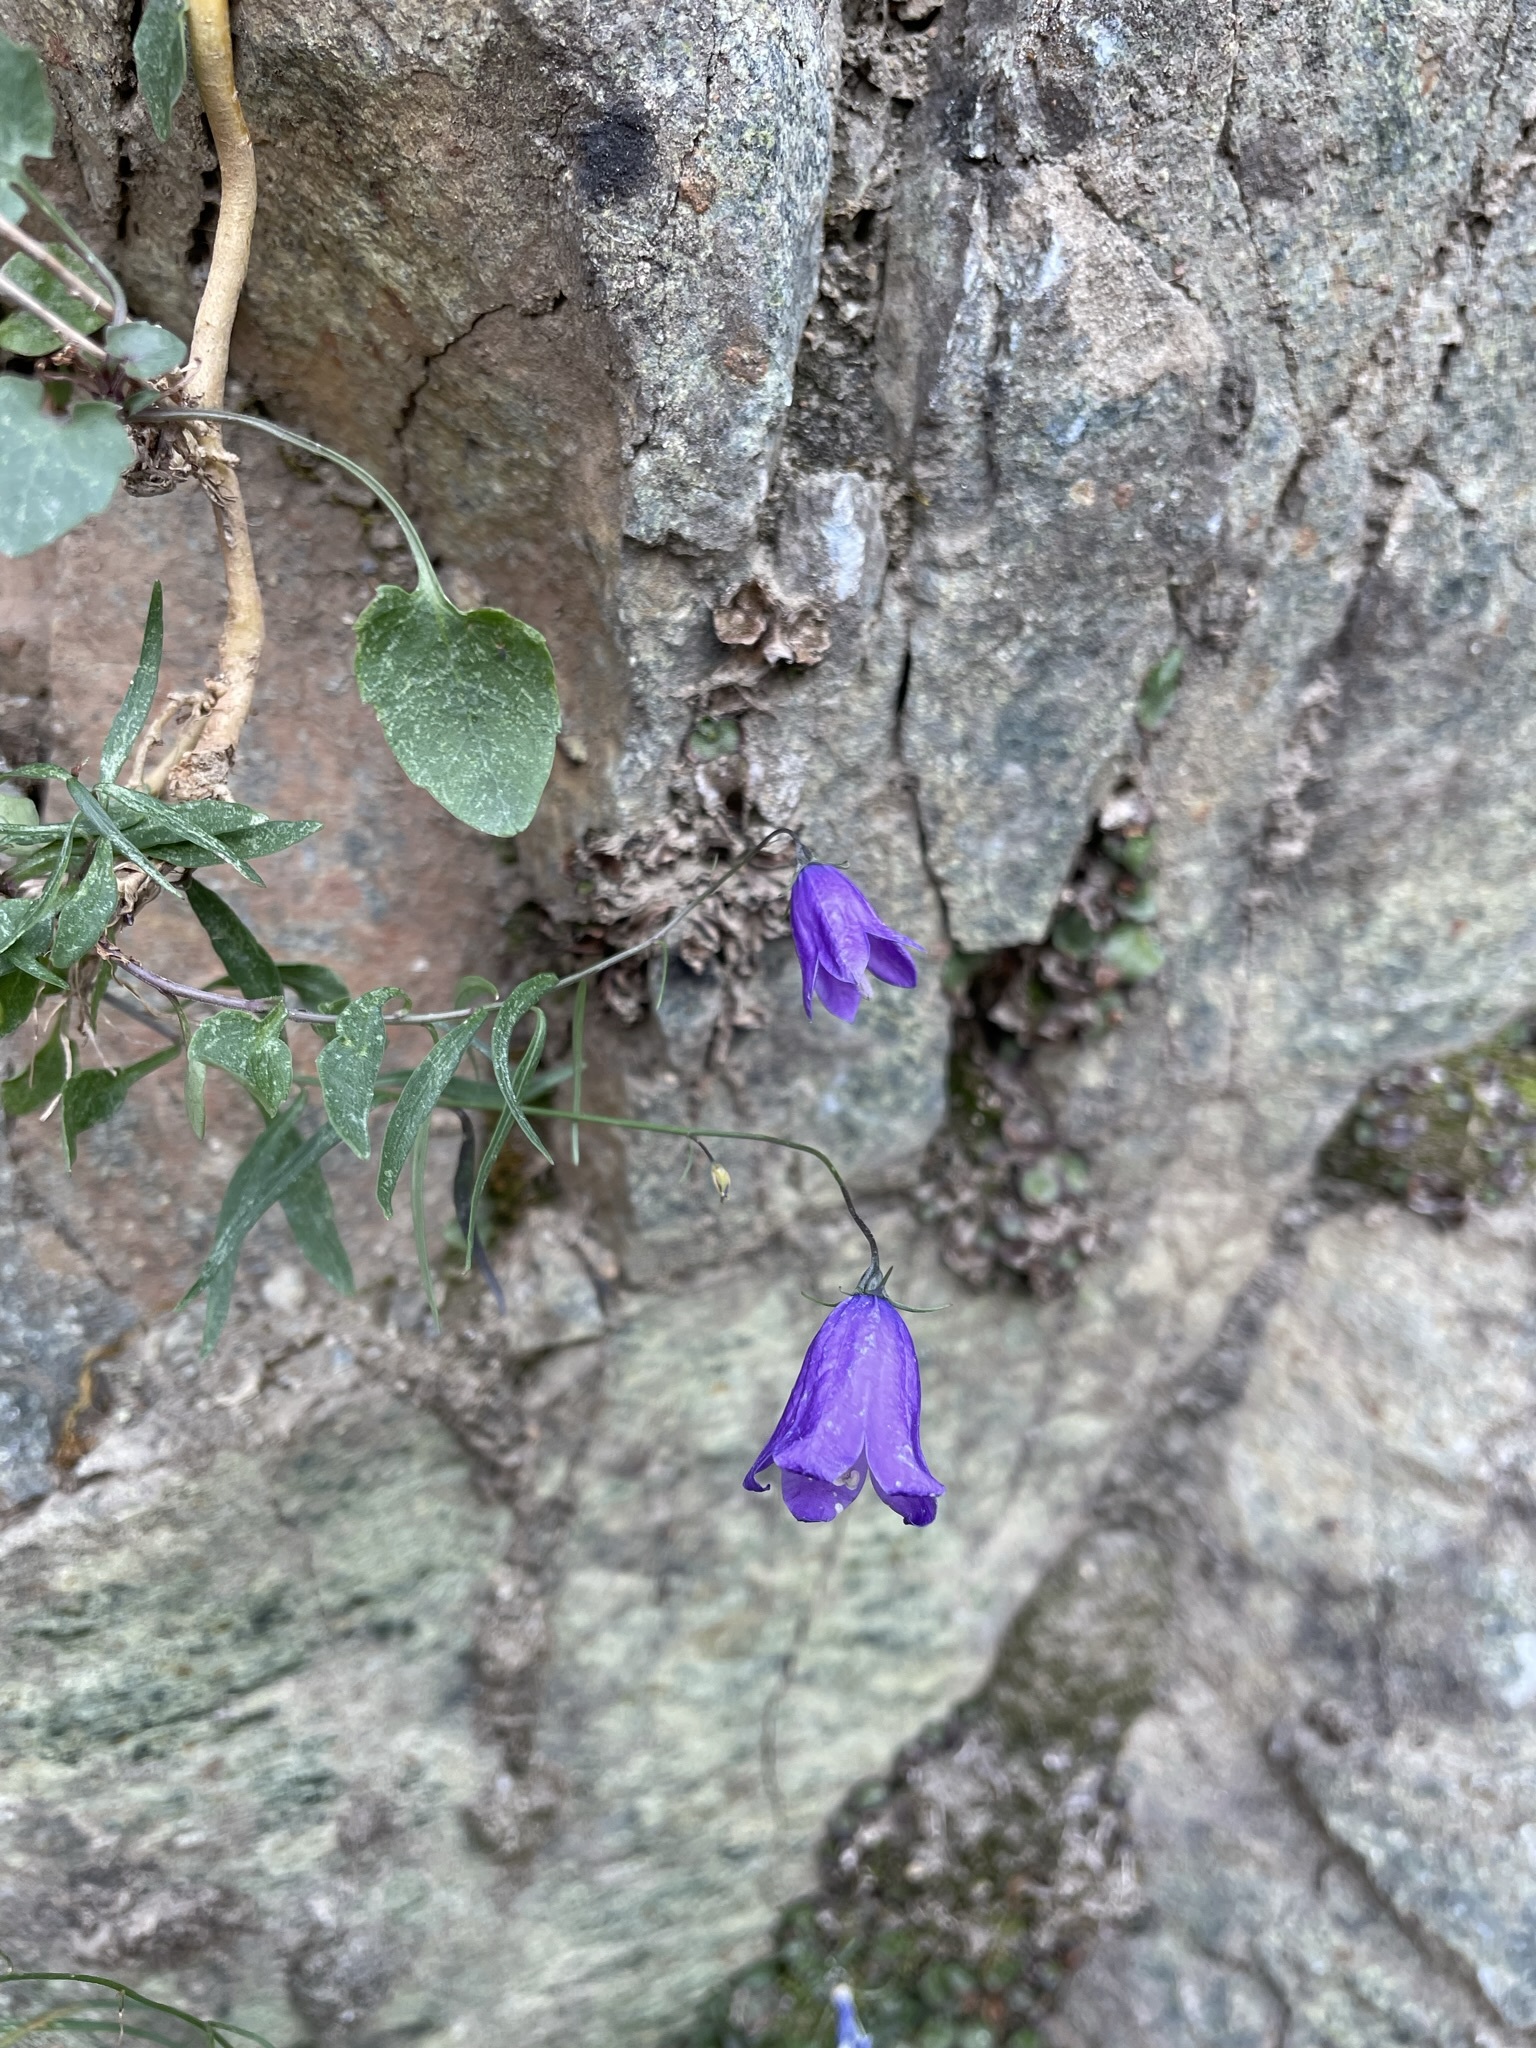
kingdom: Plantae
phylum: Tracheophyta
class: Magnoliopsida
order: Asterales
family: Campanulaceae
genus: Campanula
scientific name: Campanula alaskana
